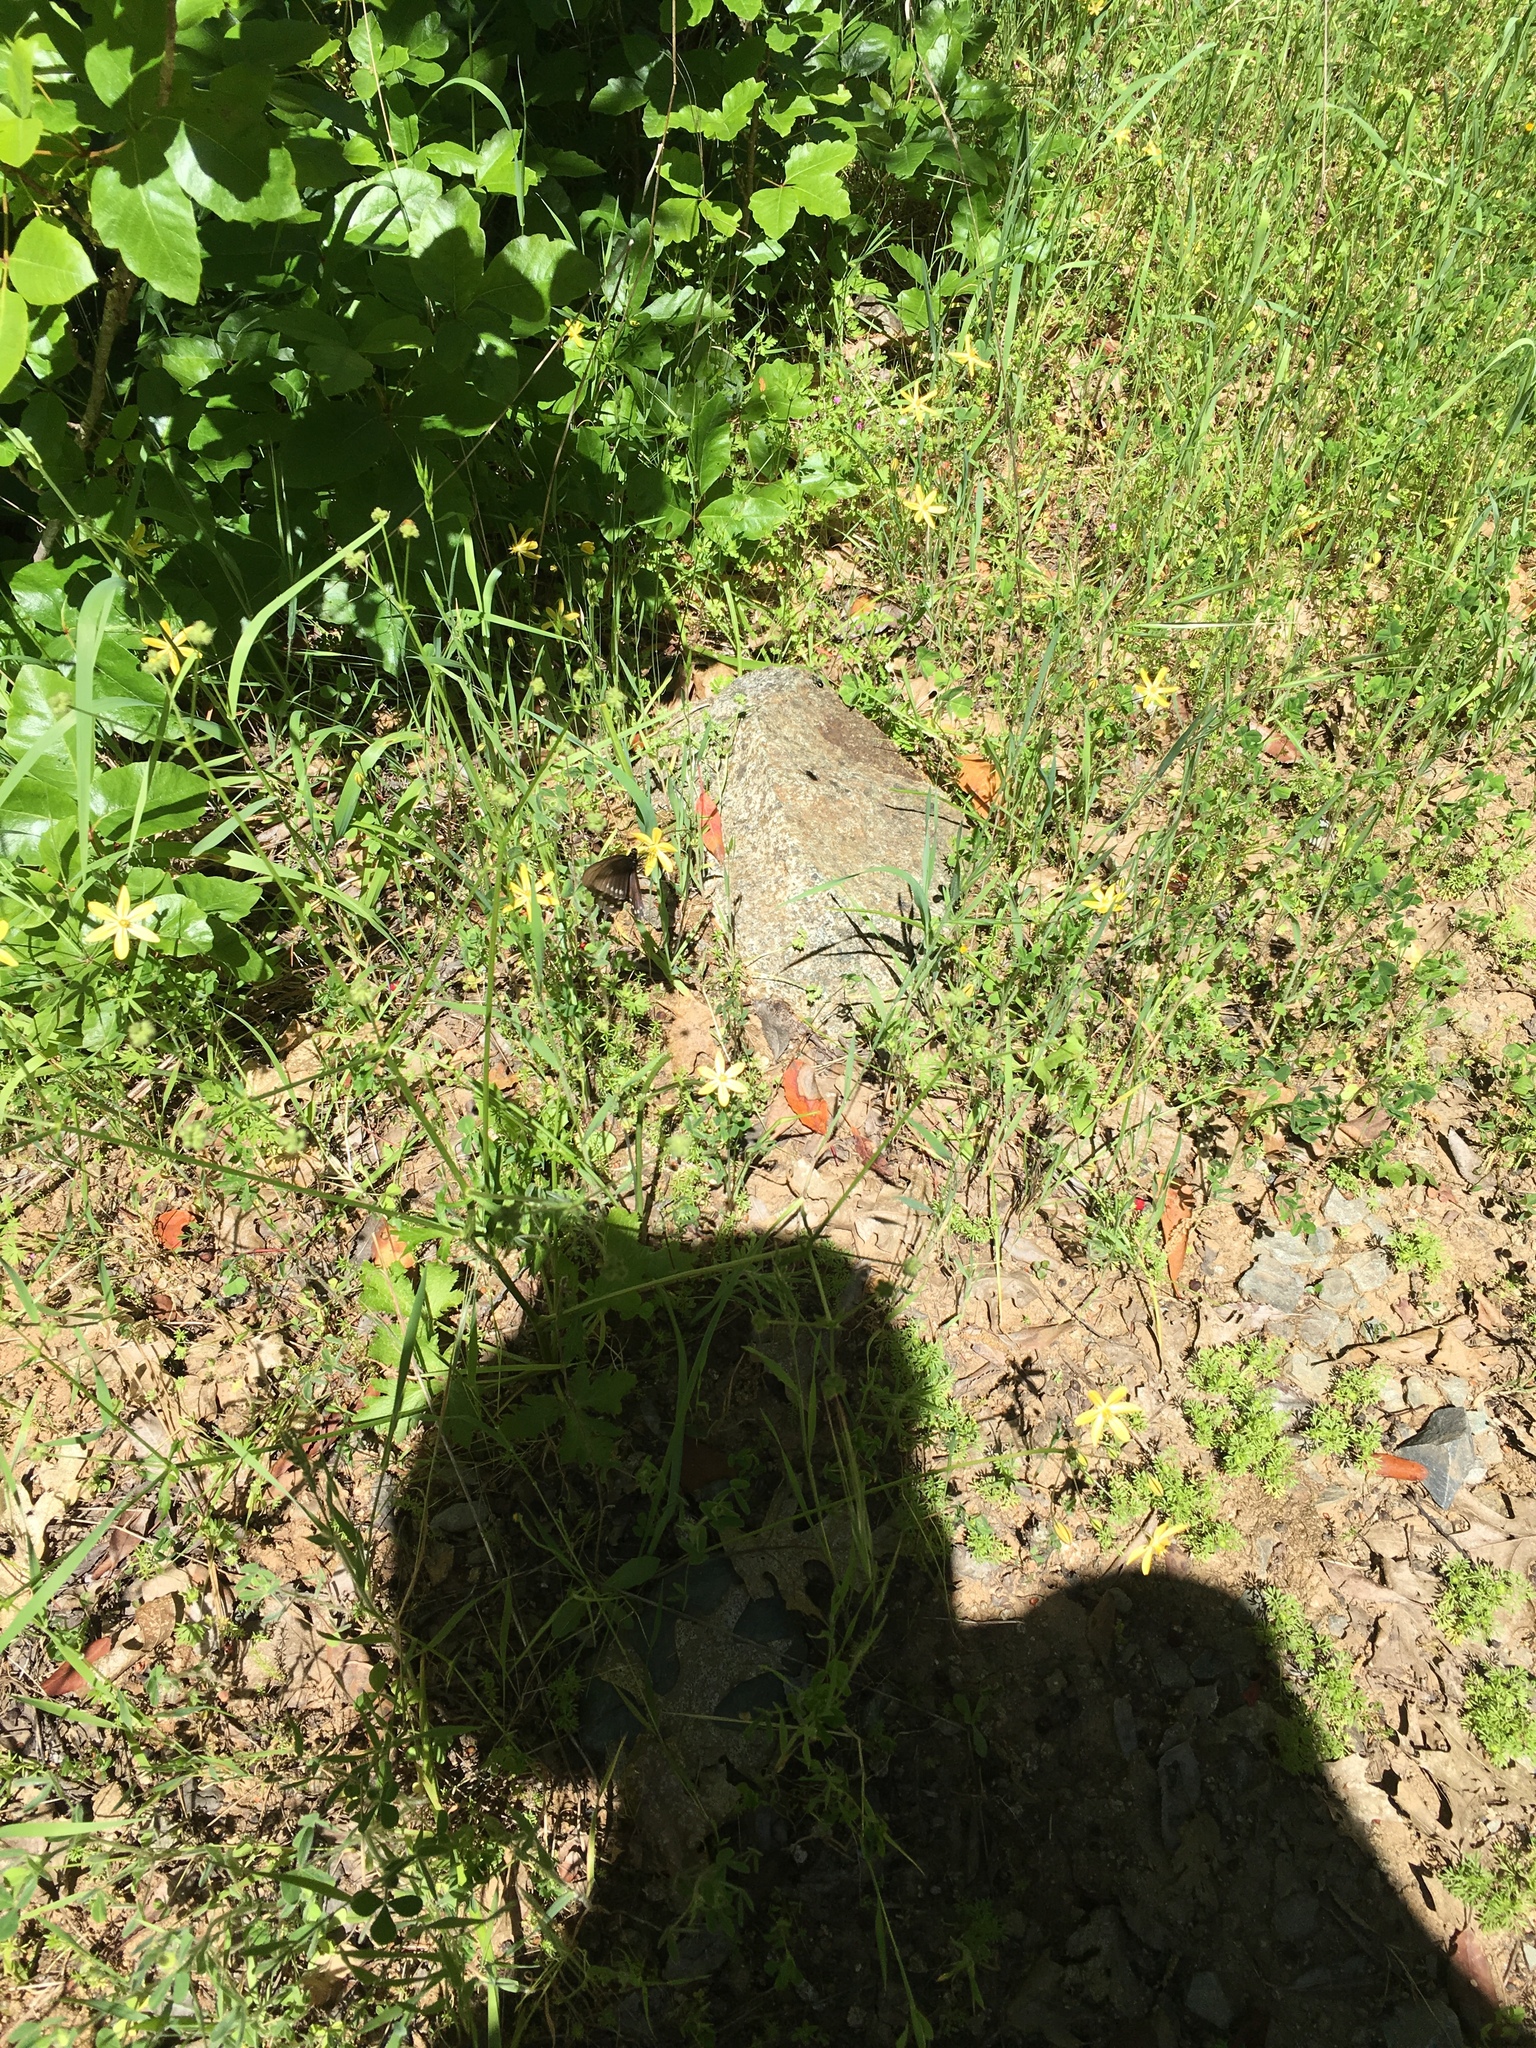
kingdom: Animalia
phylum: Arthropoda
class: Insecta
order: Lepidoptera
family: Papilionidae
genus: Battus
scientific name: Battus philenor
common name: Pipevine swallowtail
